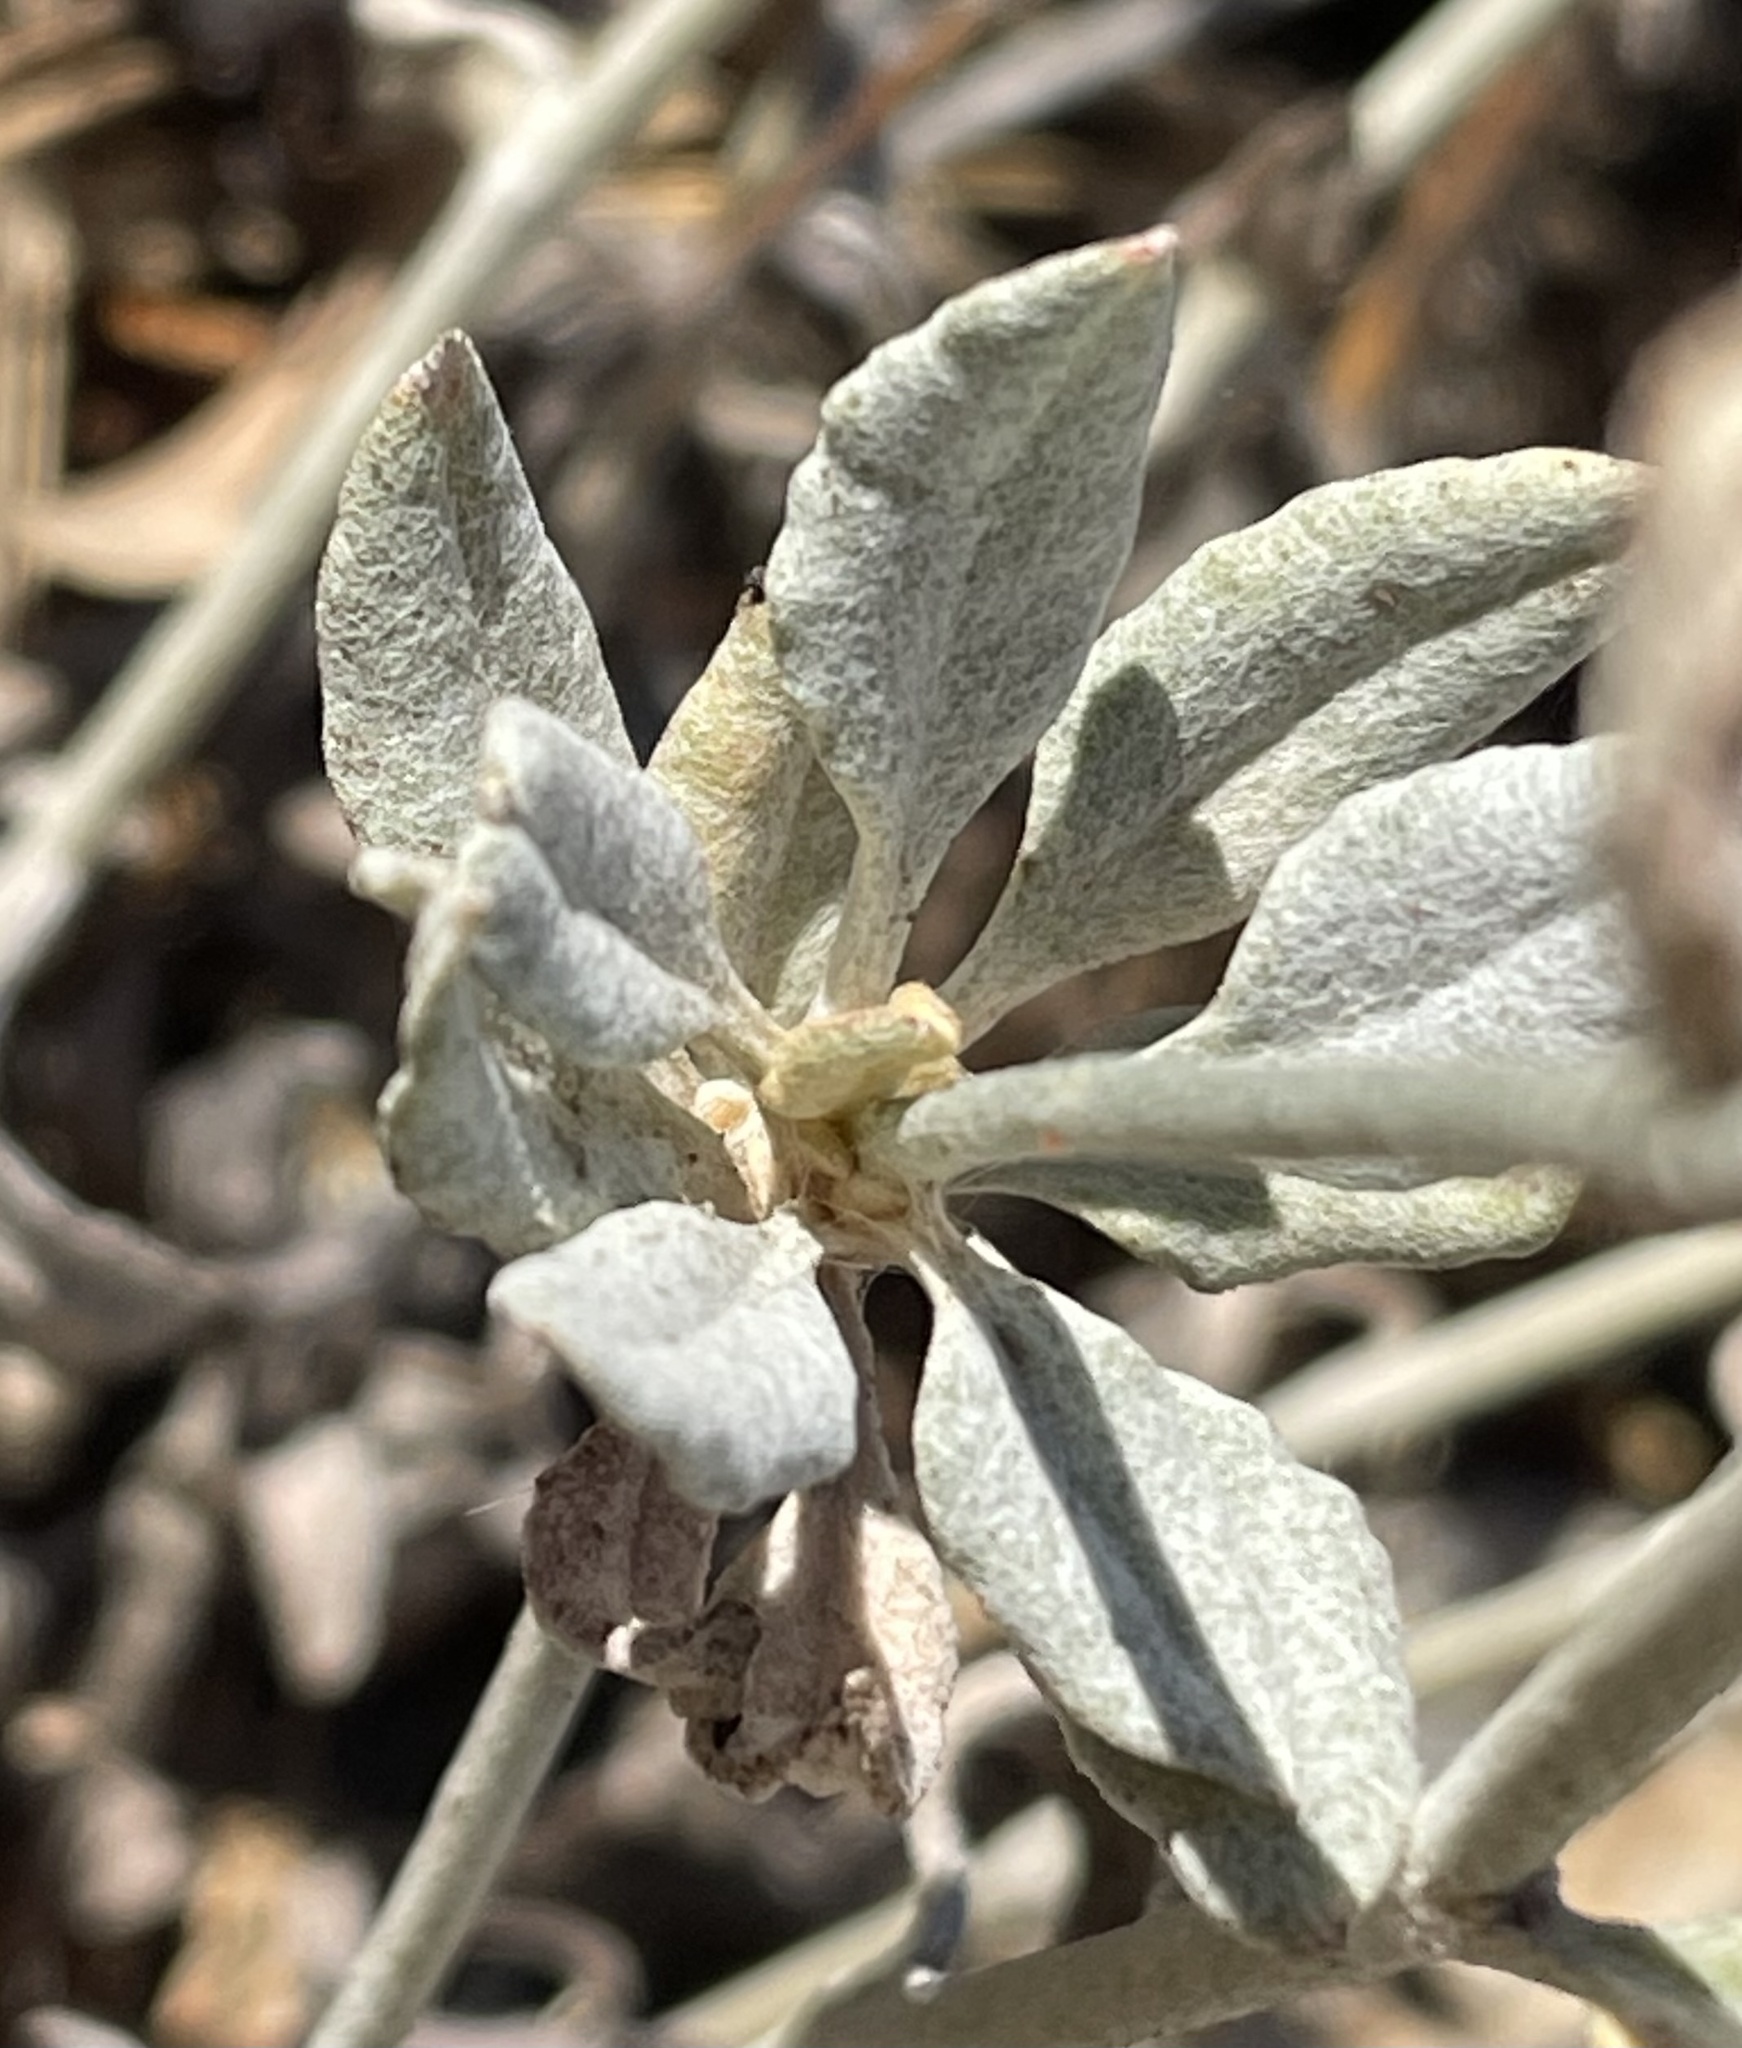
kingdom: Plantae
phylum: Tracheophyta
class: Magnoliopsida
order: Caryophyllales
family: Polygonaceae
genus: Eriogonum
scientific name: Eriogonum elongatum
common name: Long-stem wild buckwheat
